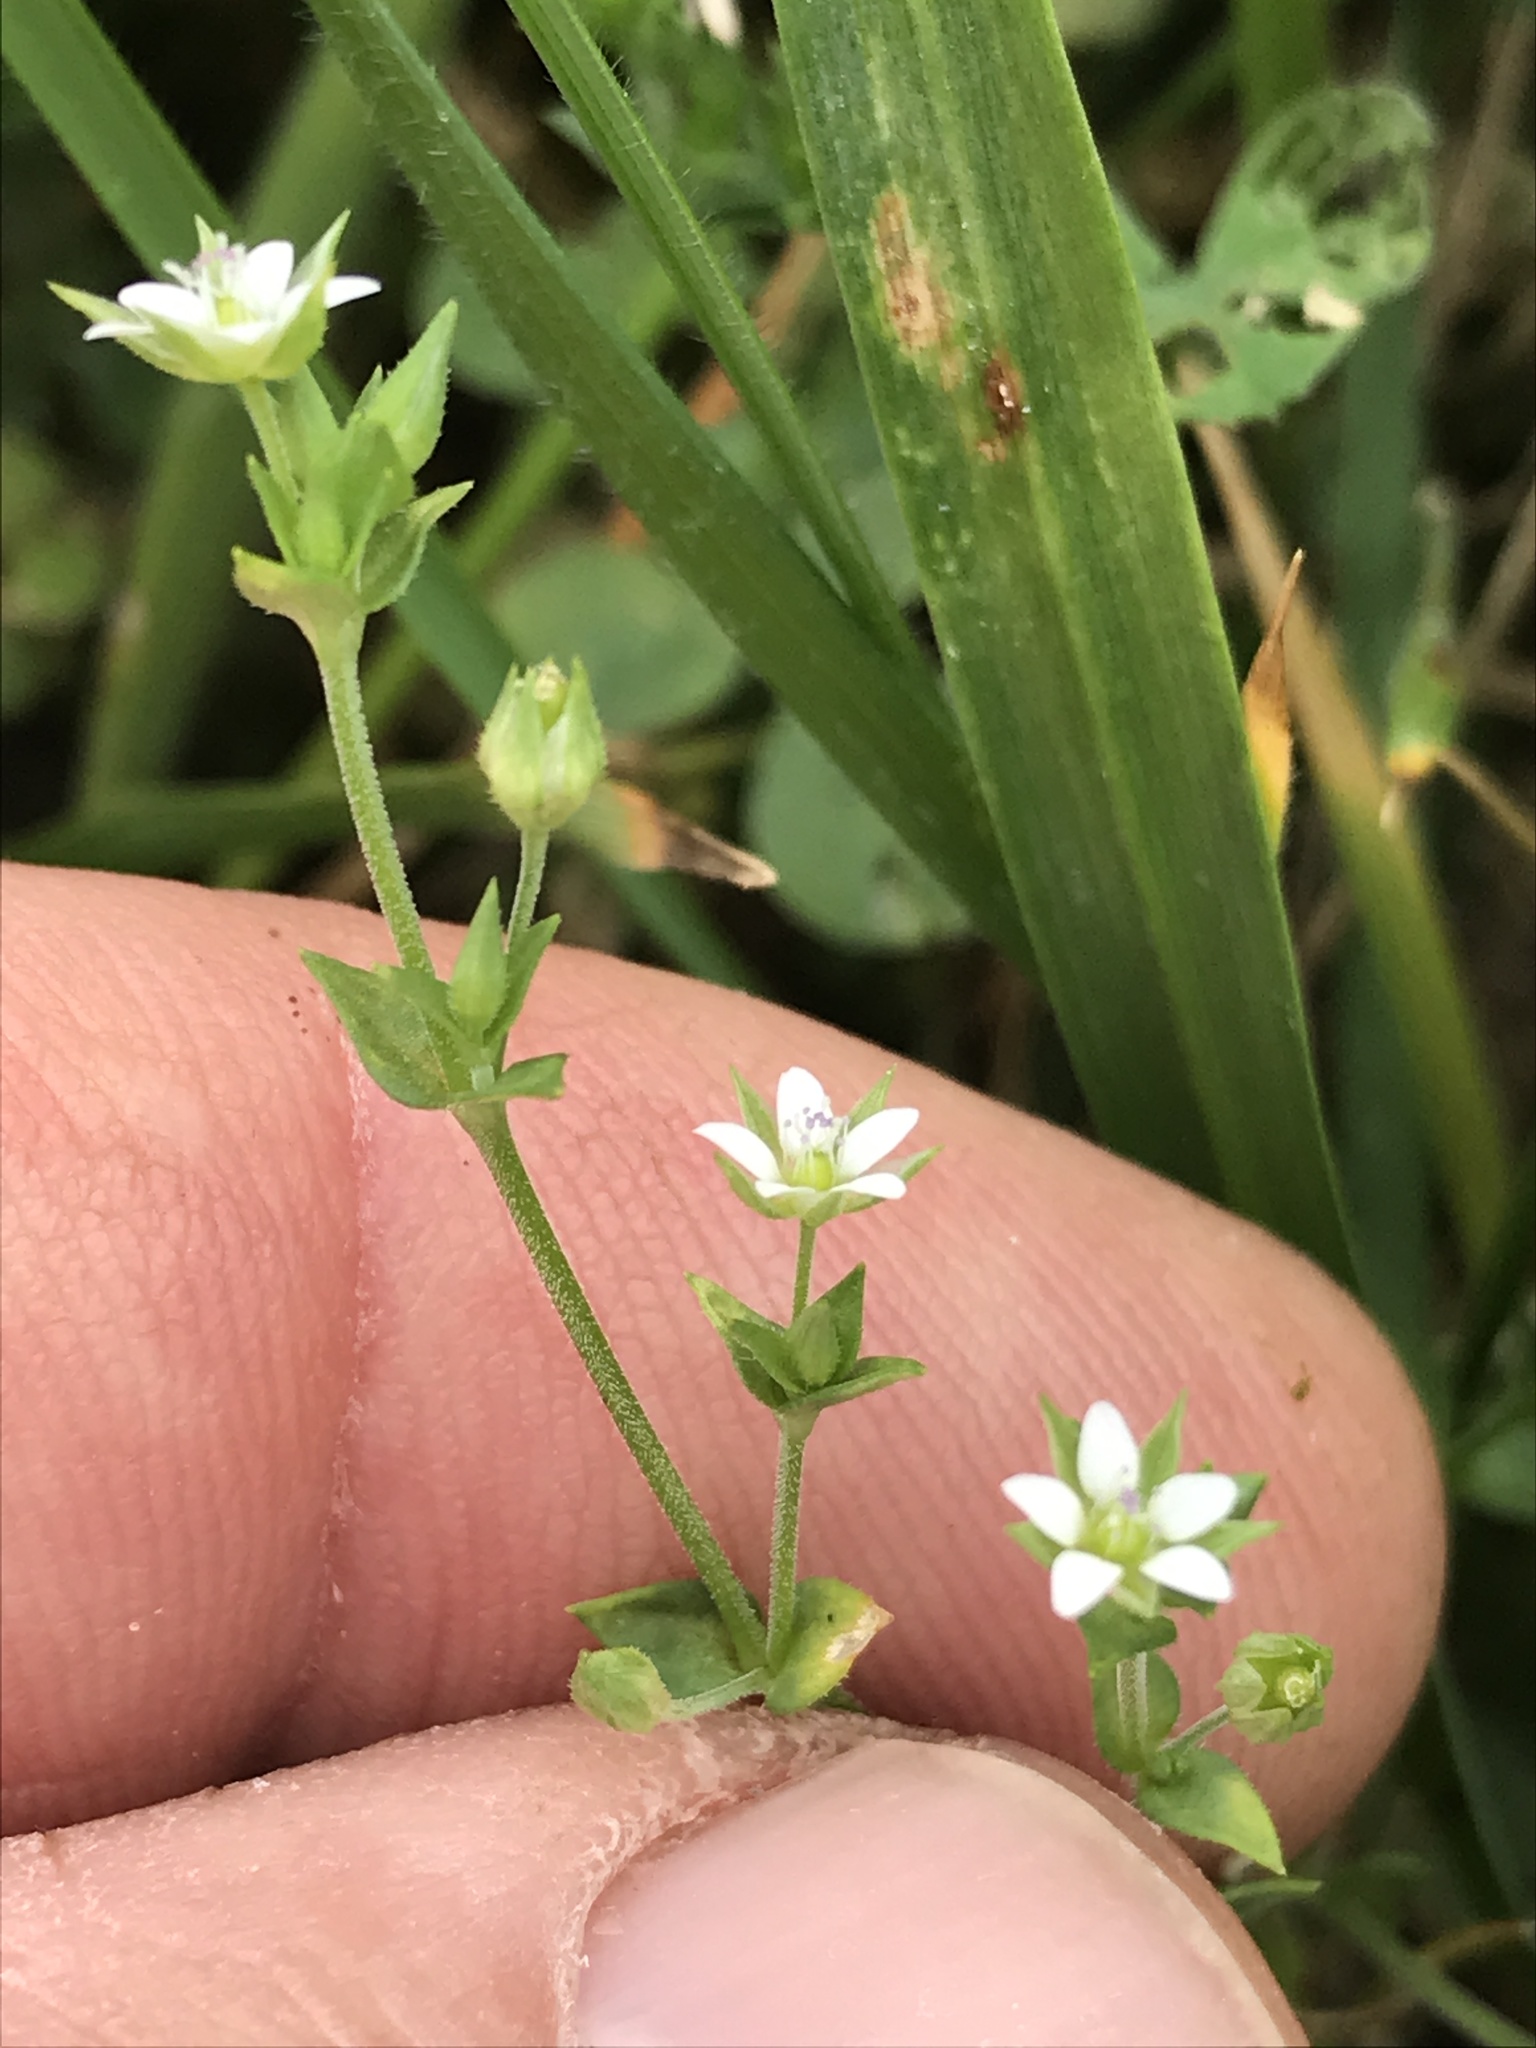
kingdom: Plantae
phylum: Tracheophyta
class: Magnoliopsida
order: Caryophyllales
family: Caryophyllaceae
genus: Arenaria
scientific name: Arenaria serpyllifolia
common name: Thyme-leaved sandwort
